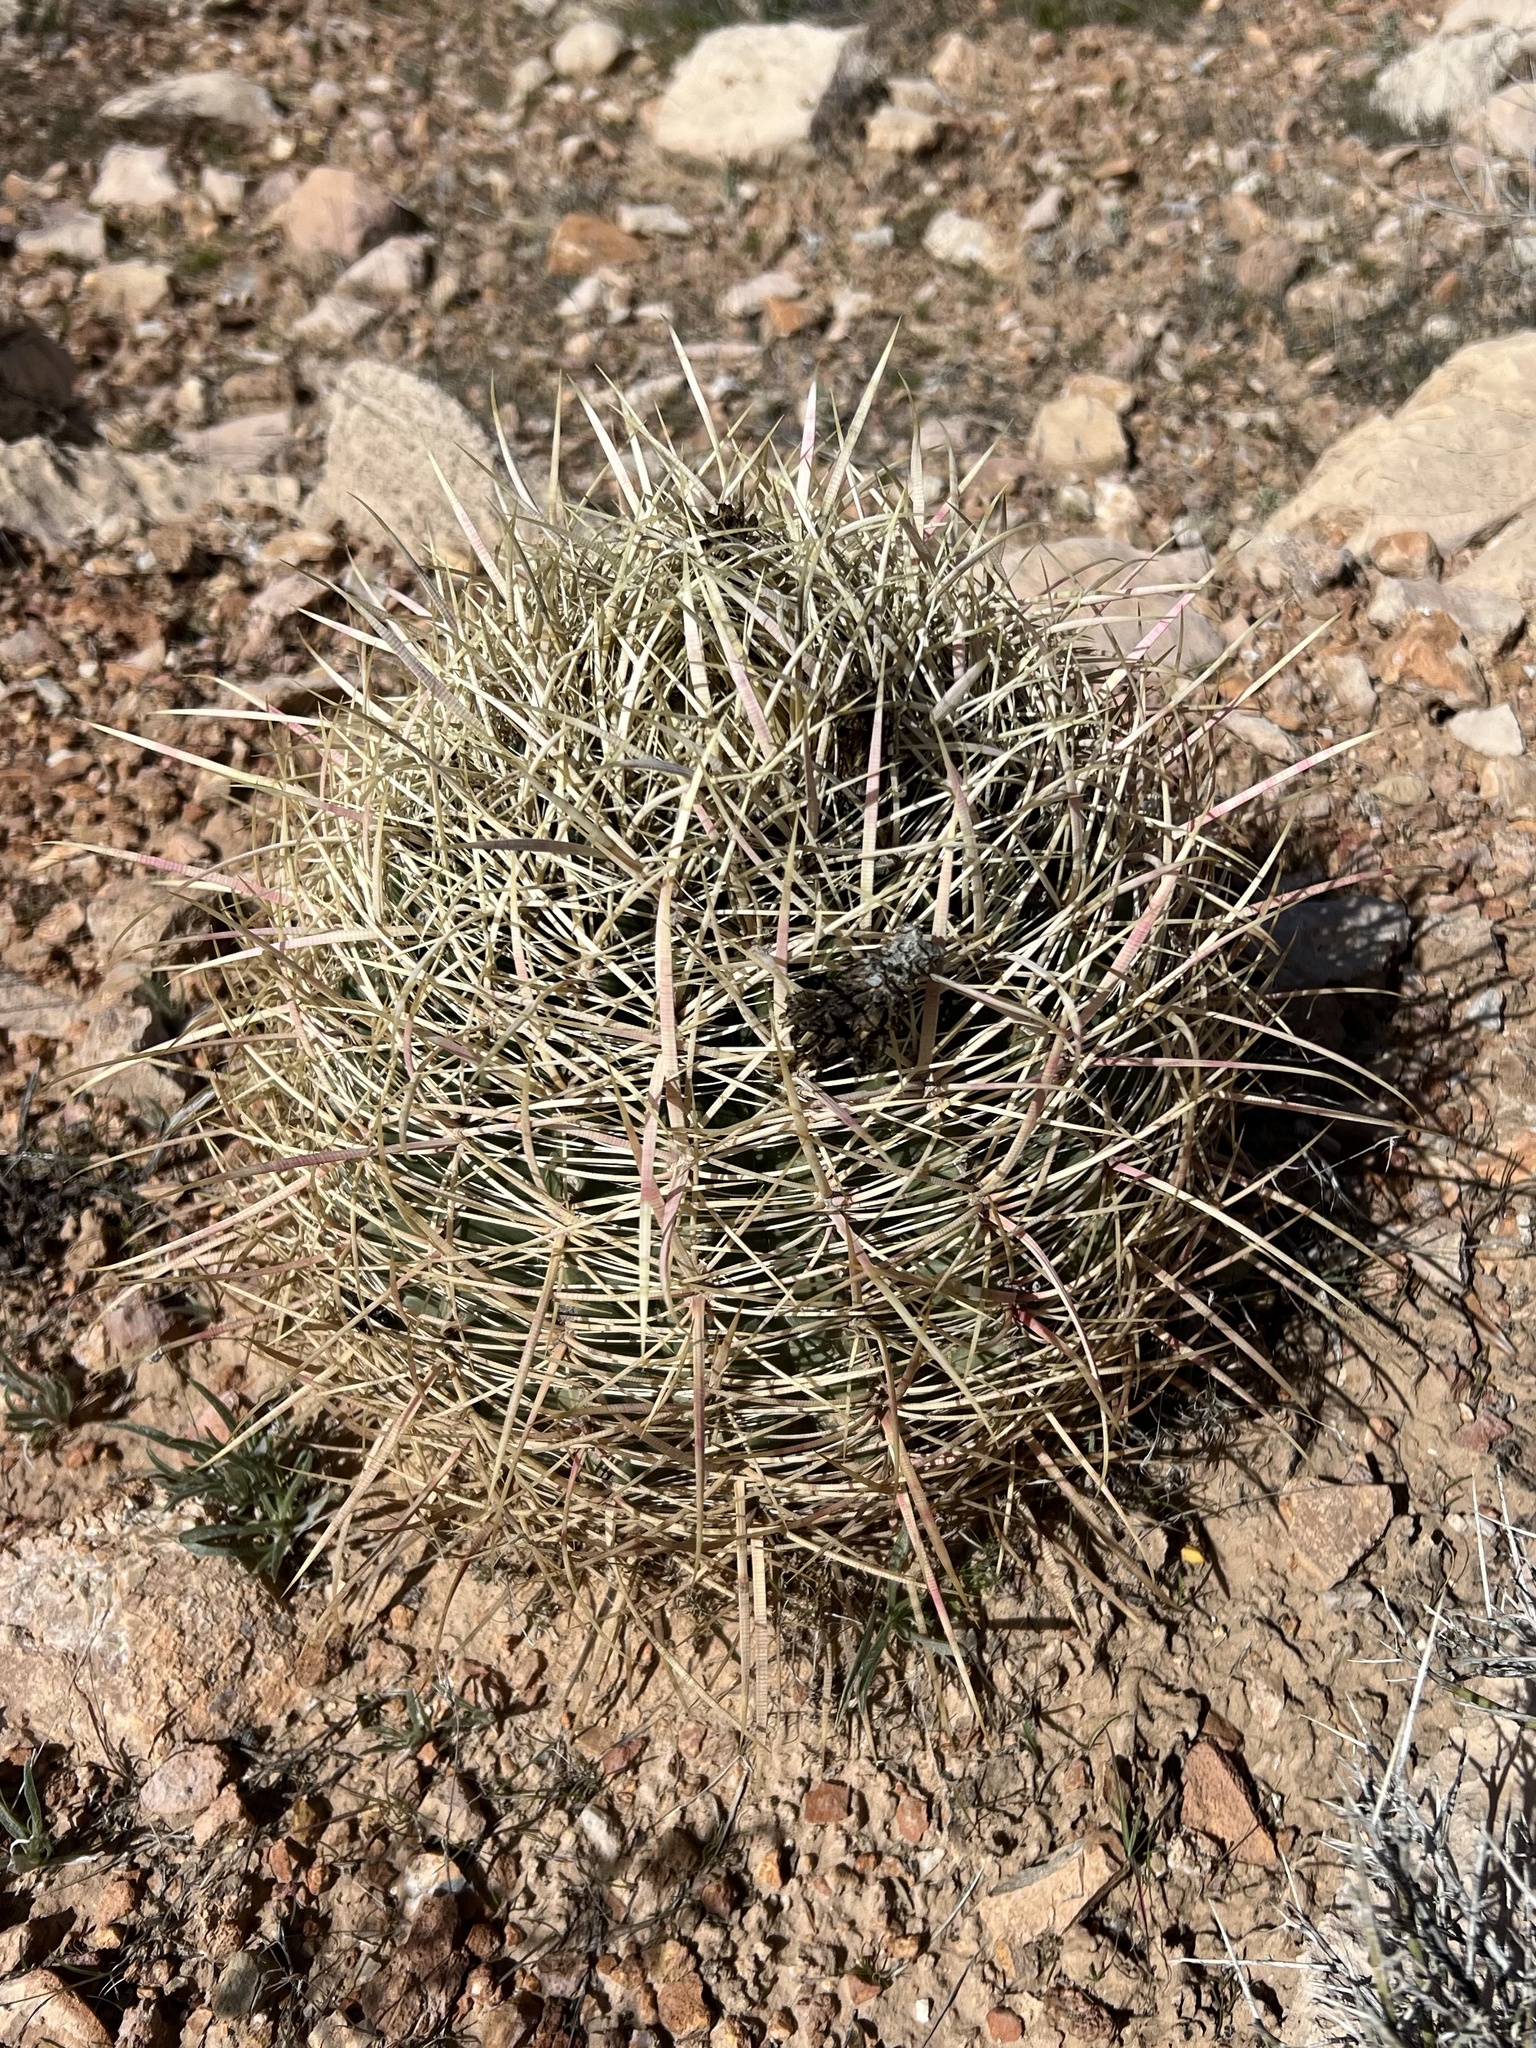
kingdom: Plantae
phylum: Tracheophyta
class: Magnoliopsida
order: Caryophyllales
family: Cactaceae
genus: Ferocactus
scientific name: Ferocactus cylindraceus
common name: California barrel cactus
